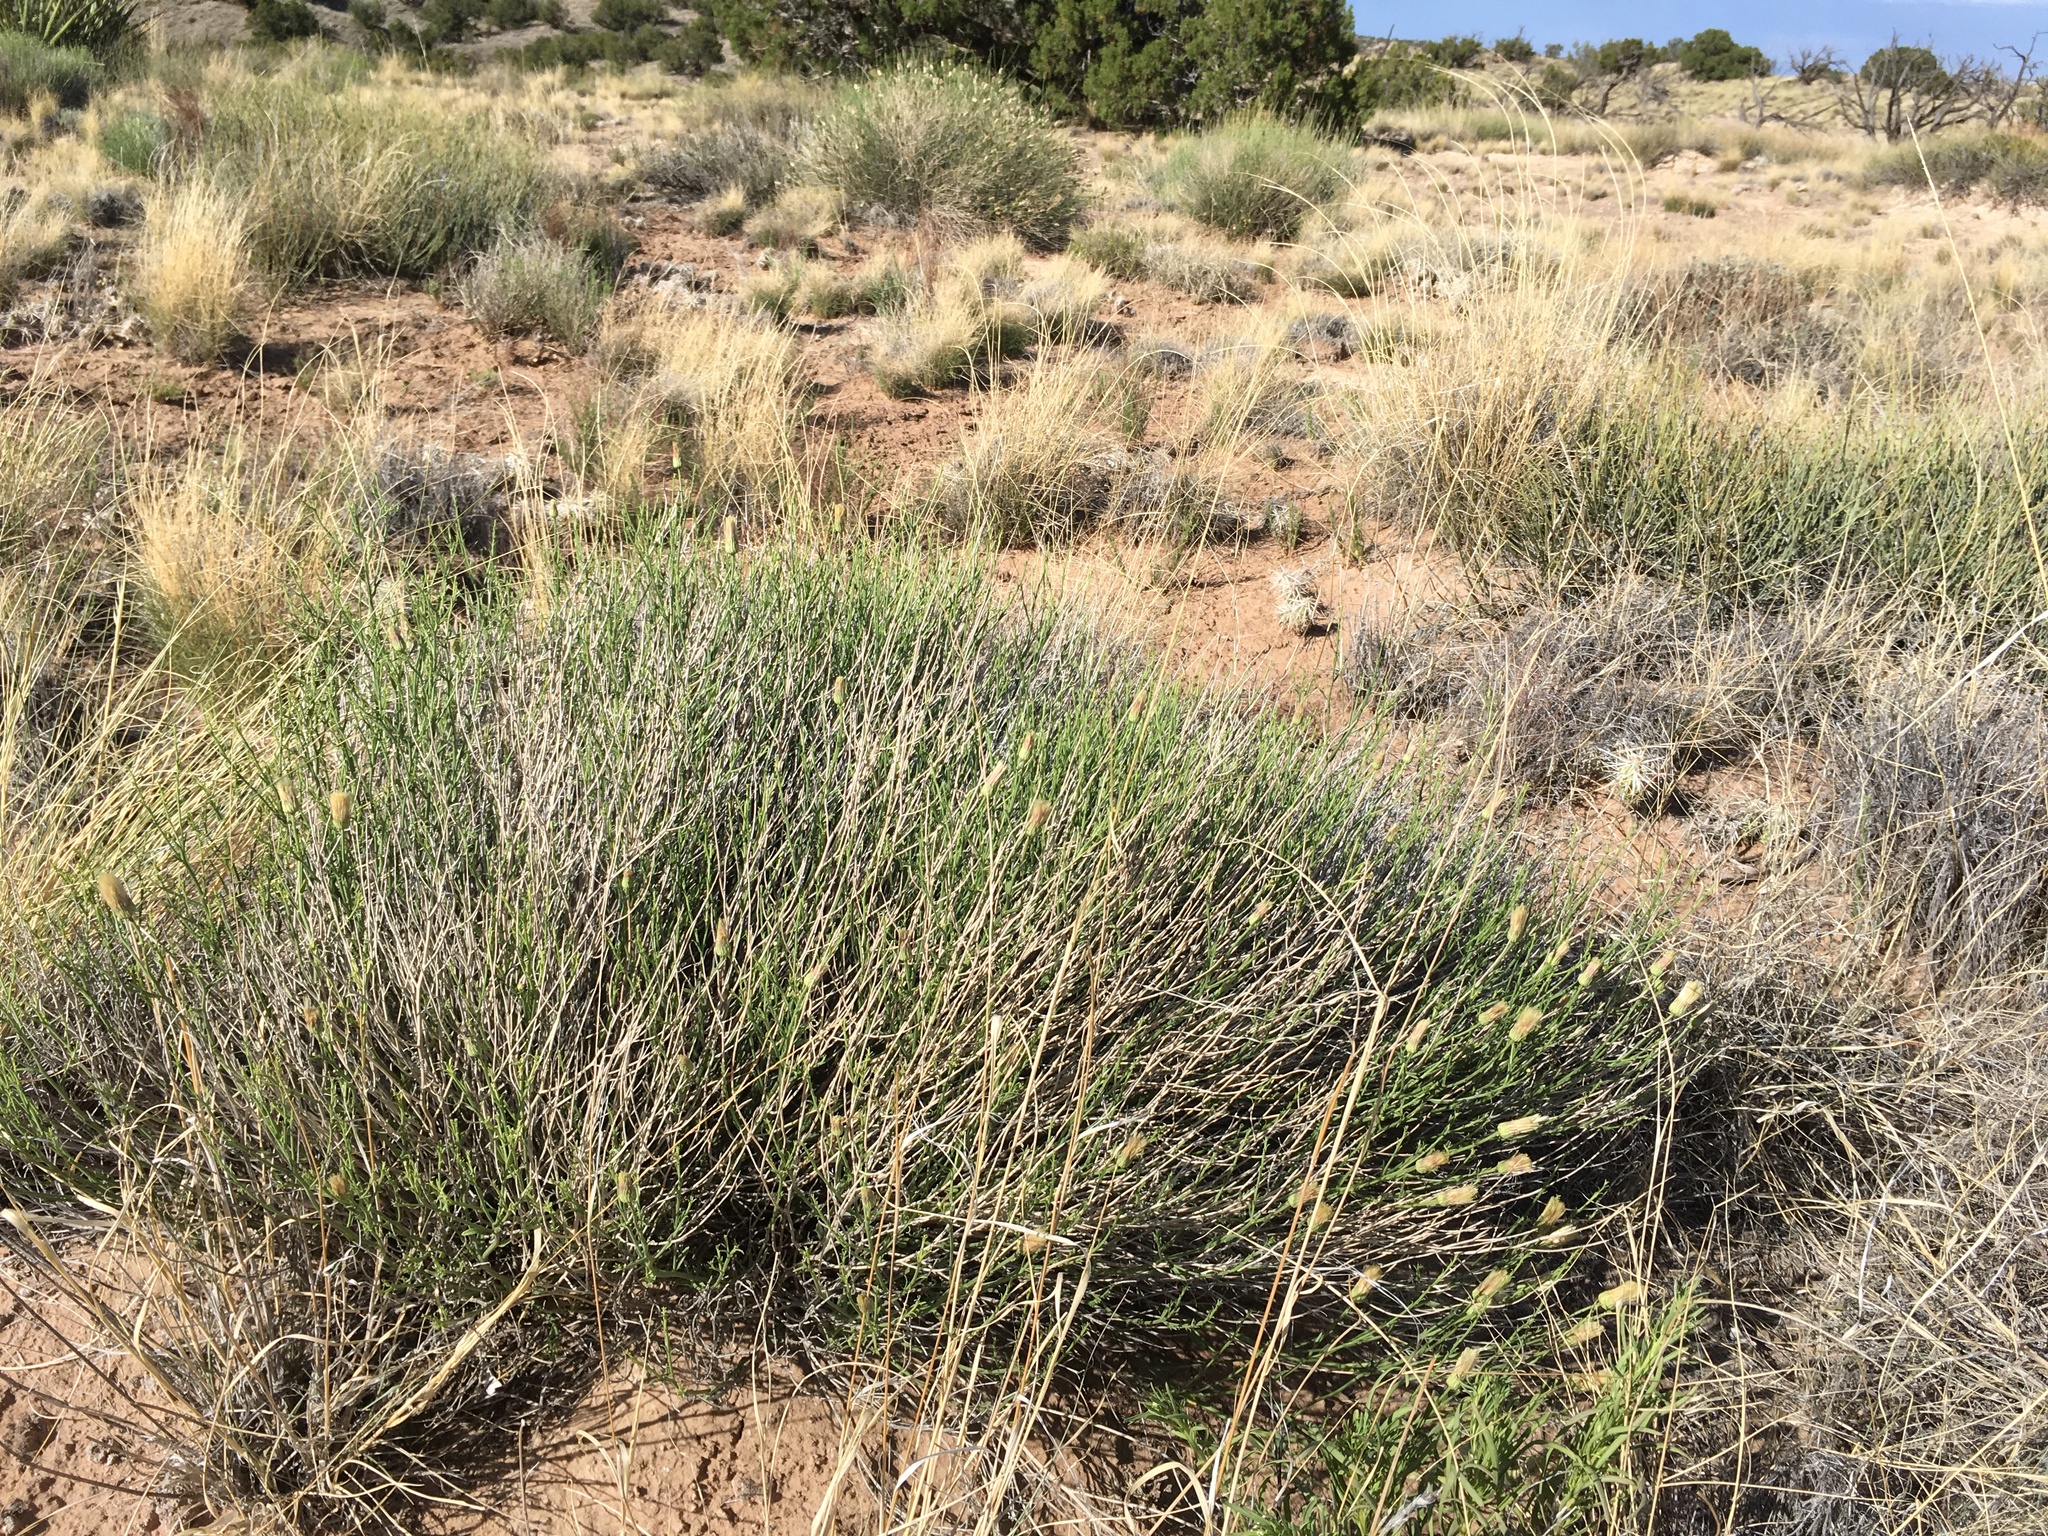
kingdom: Plantae
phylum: Tracheophyta
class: Magnoliopsida
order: Asterales
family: Asteraceae
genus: Baccharis
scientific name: Baccharis wrightii
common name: Wright's baccharis
